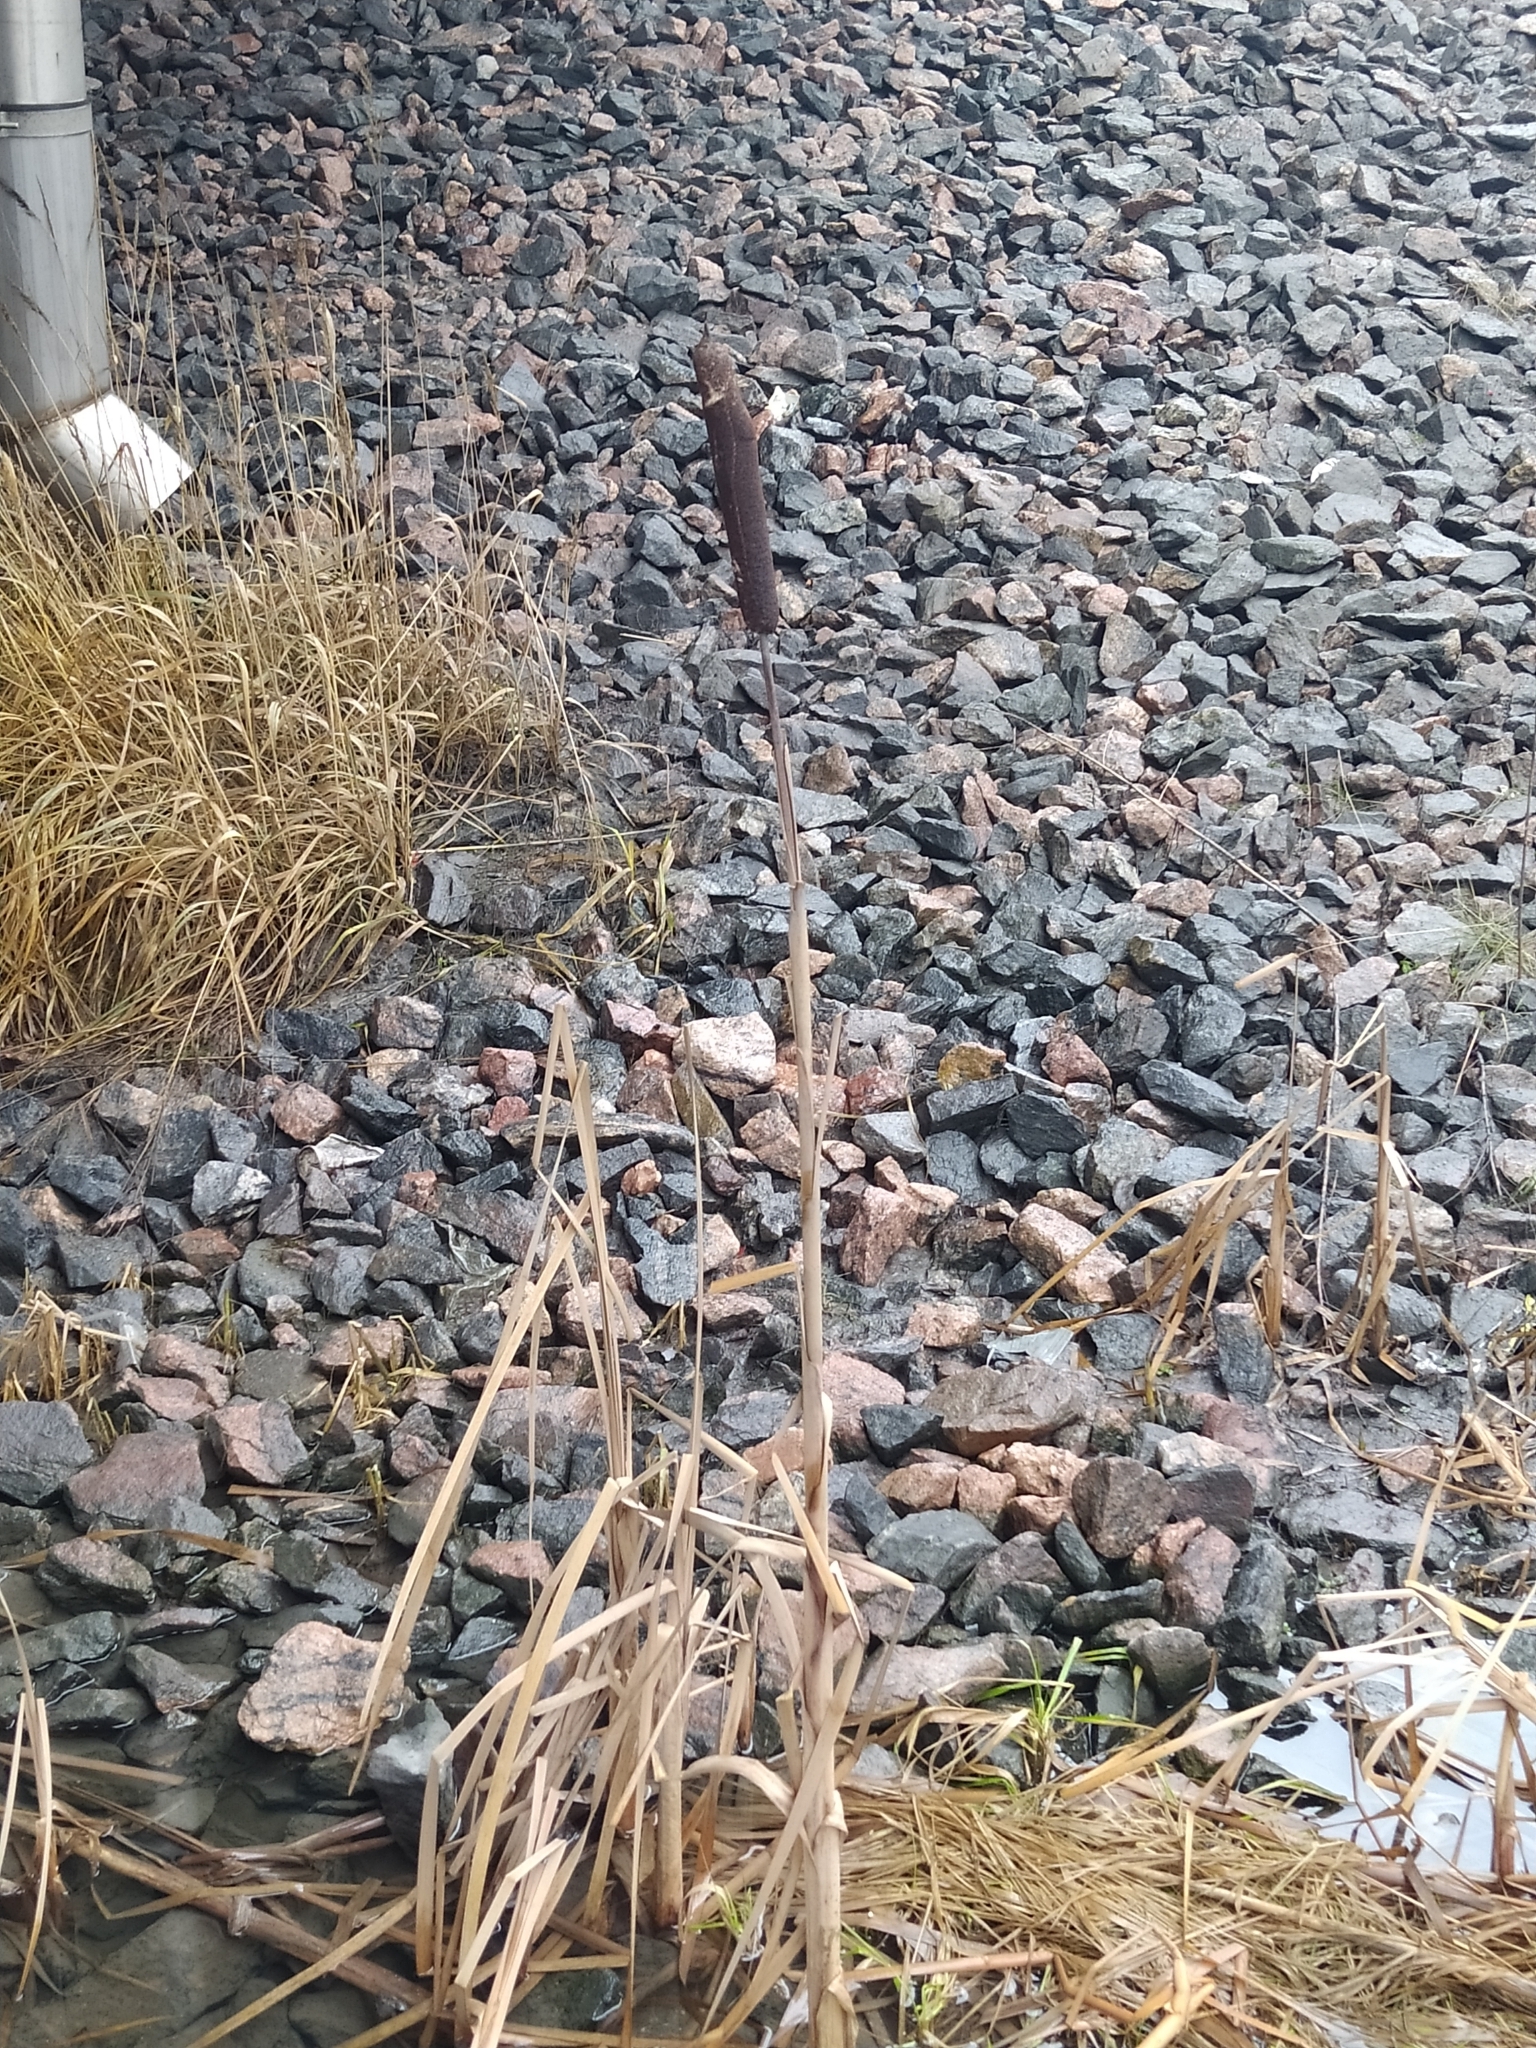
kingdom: Plantae
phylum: Tracheophyta
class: Liliopsida
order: Poales
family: Typhaceae
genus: Typha
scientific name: Typha latifolia
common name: Broadleaf cattail
